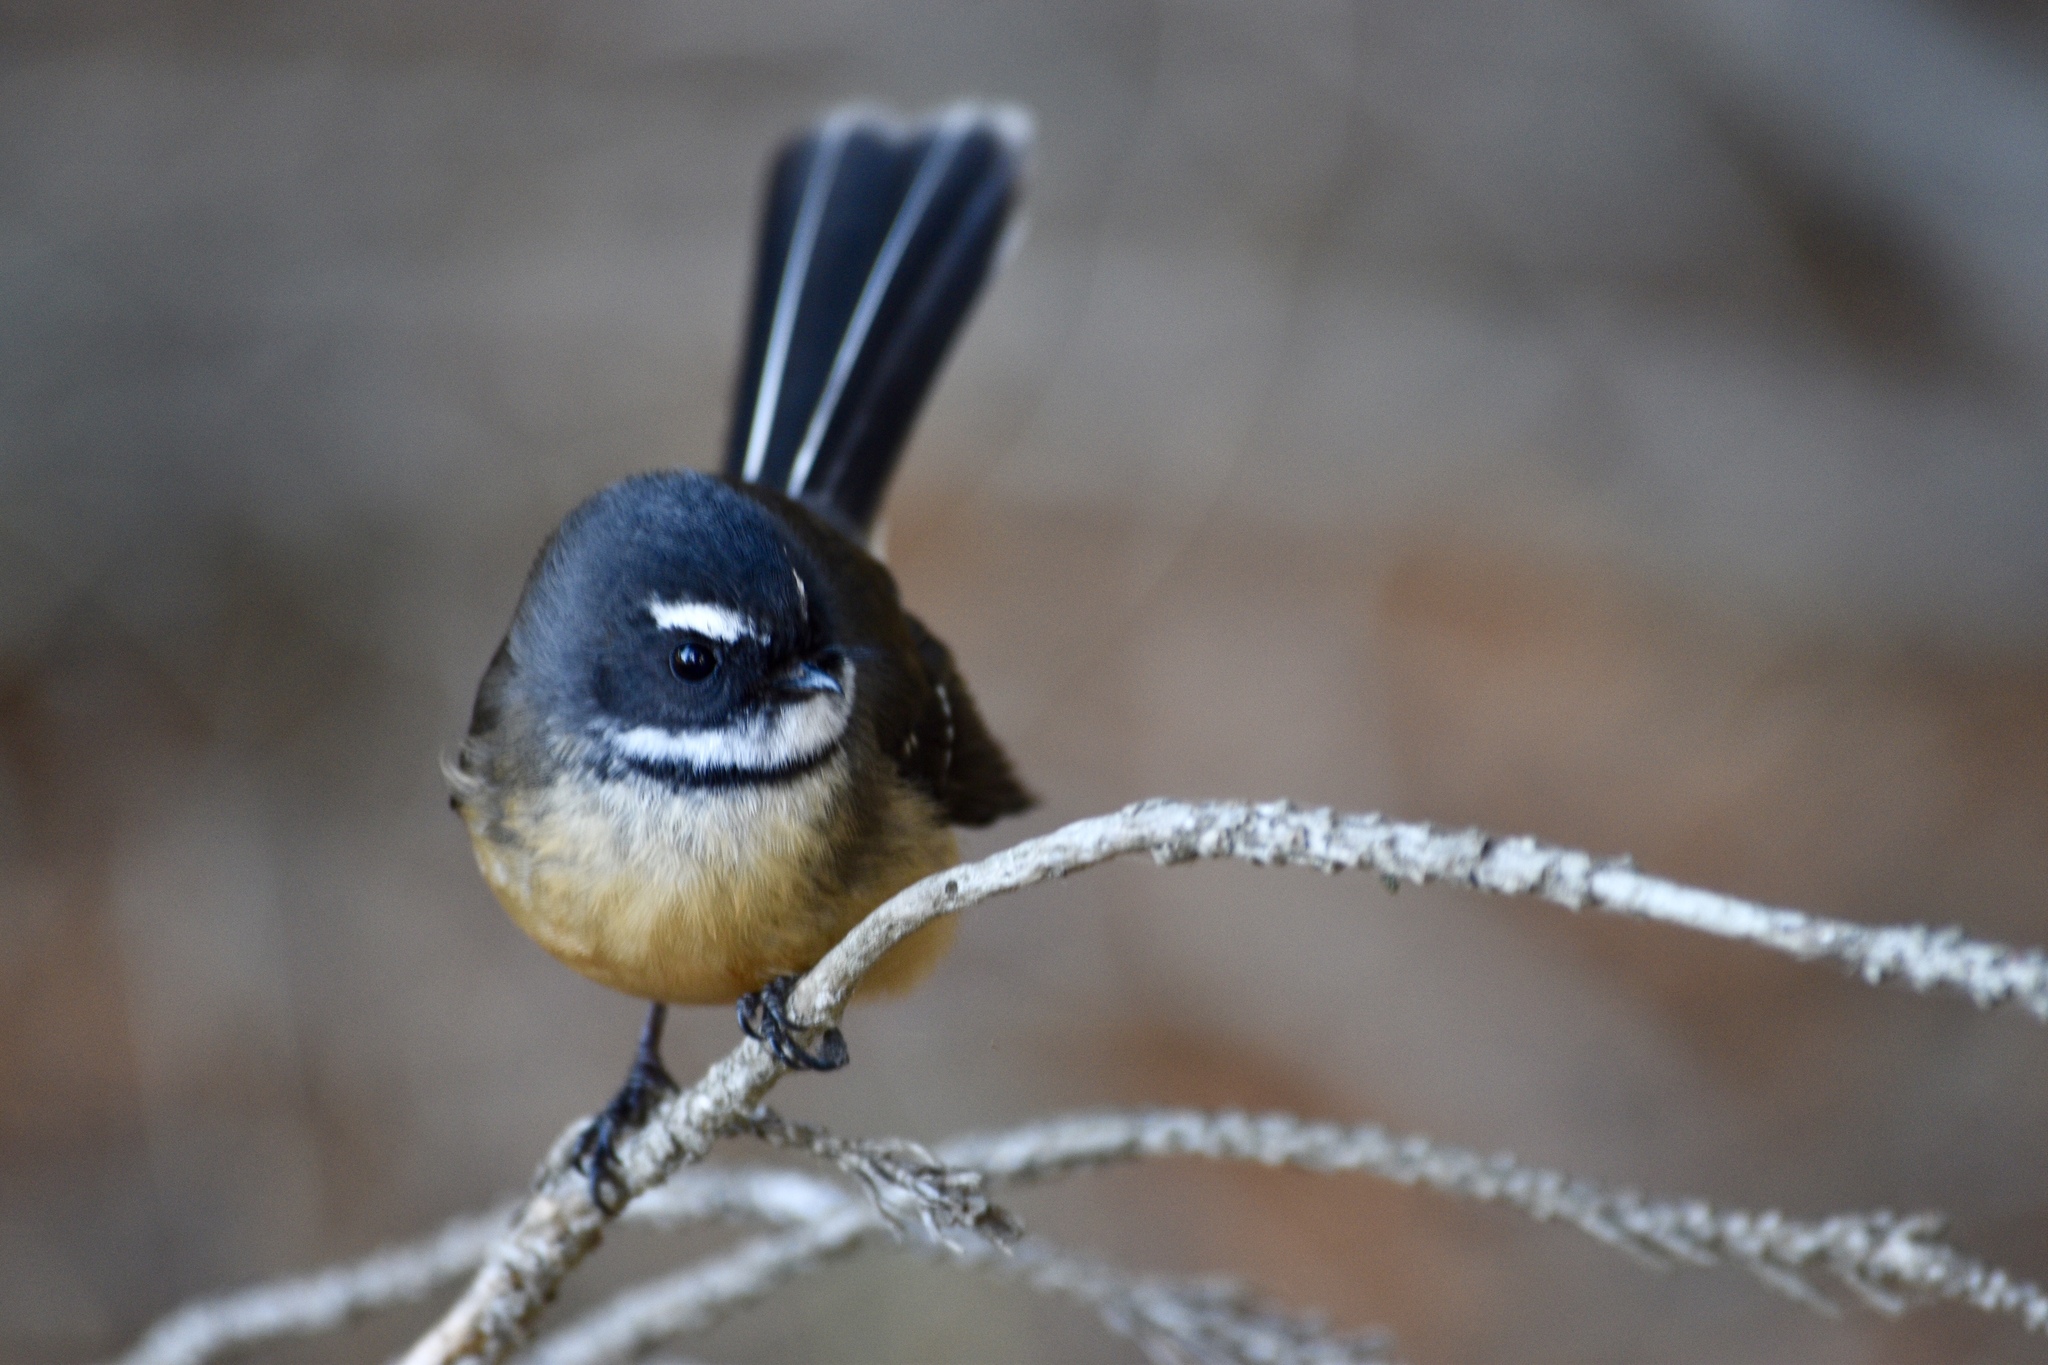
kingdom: Animalia
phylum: Chordata
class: Aves
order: Passeriformes
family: Rhipiduridae
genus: Rhipidura
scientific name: Rhipidura fuliginosa
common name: New zealand fantail
